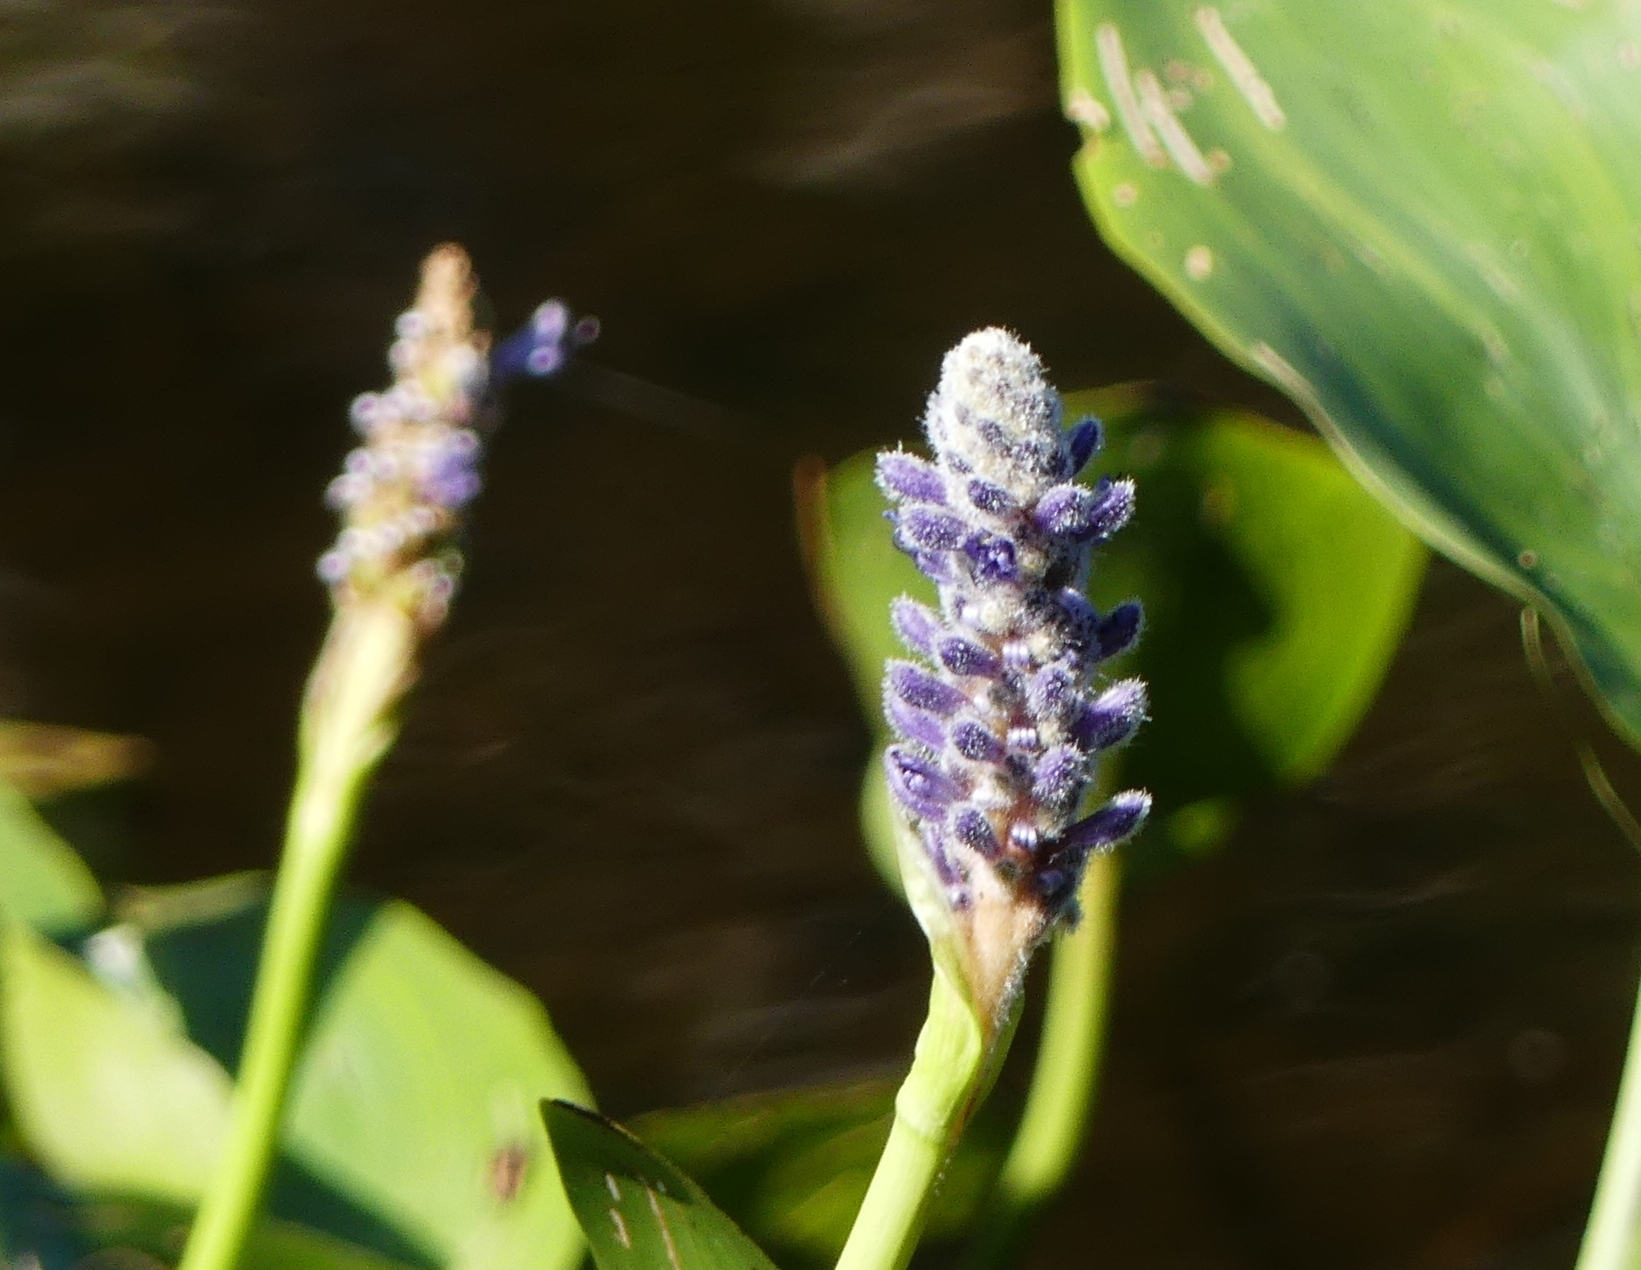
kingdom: Plantae
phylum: Tracheophyta
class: Liliopsida
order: Commelinales
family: Pontederiaceae
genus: Pontederia
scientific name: Pontederia cordata
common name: Pickerelweed
